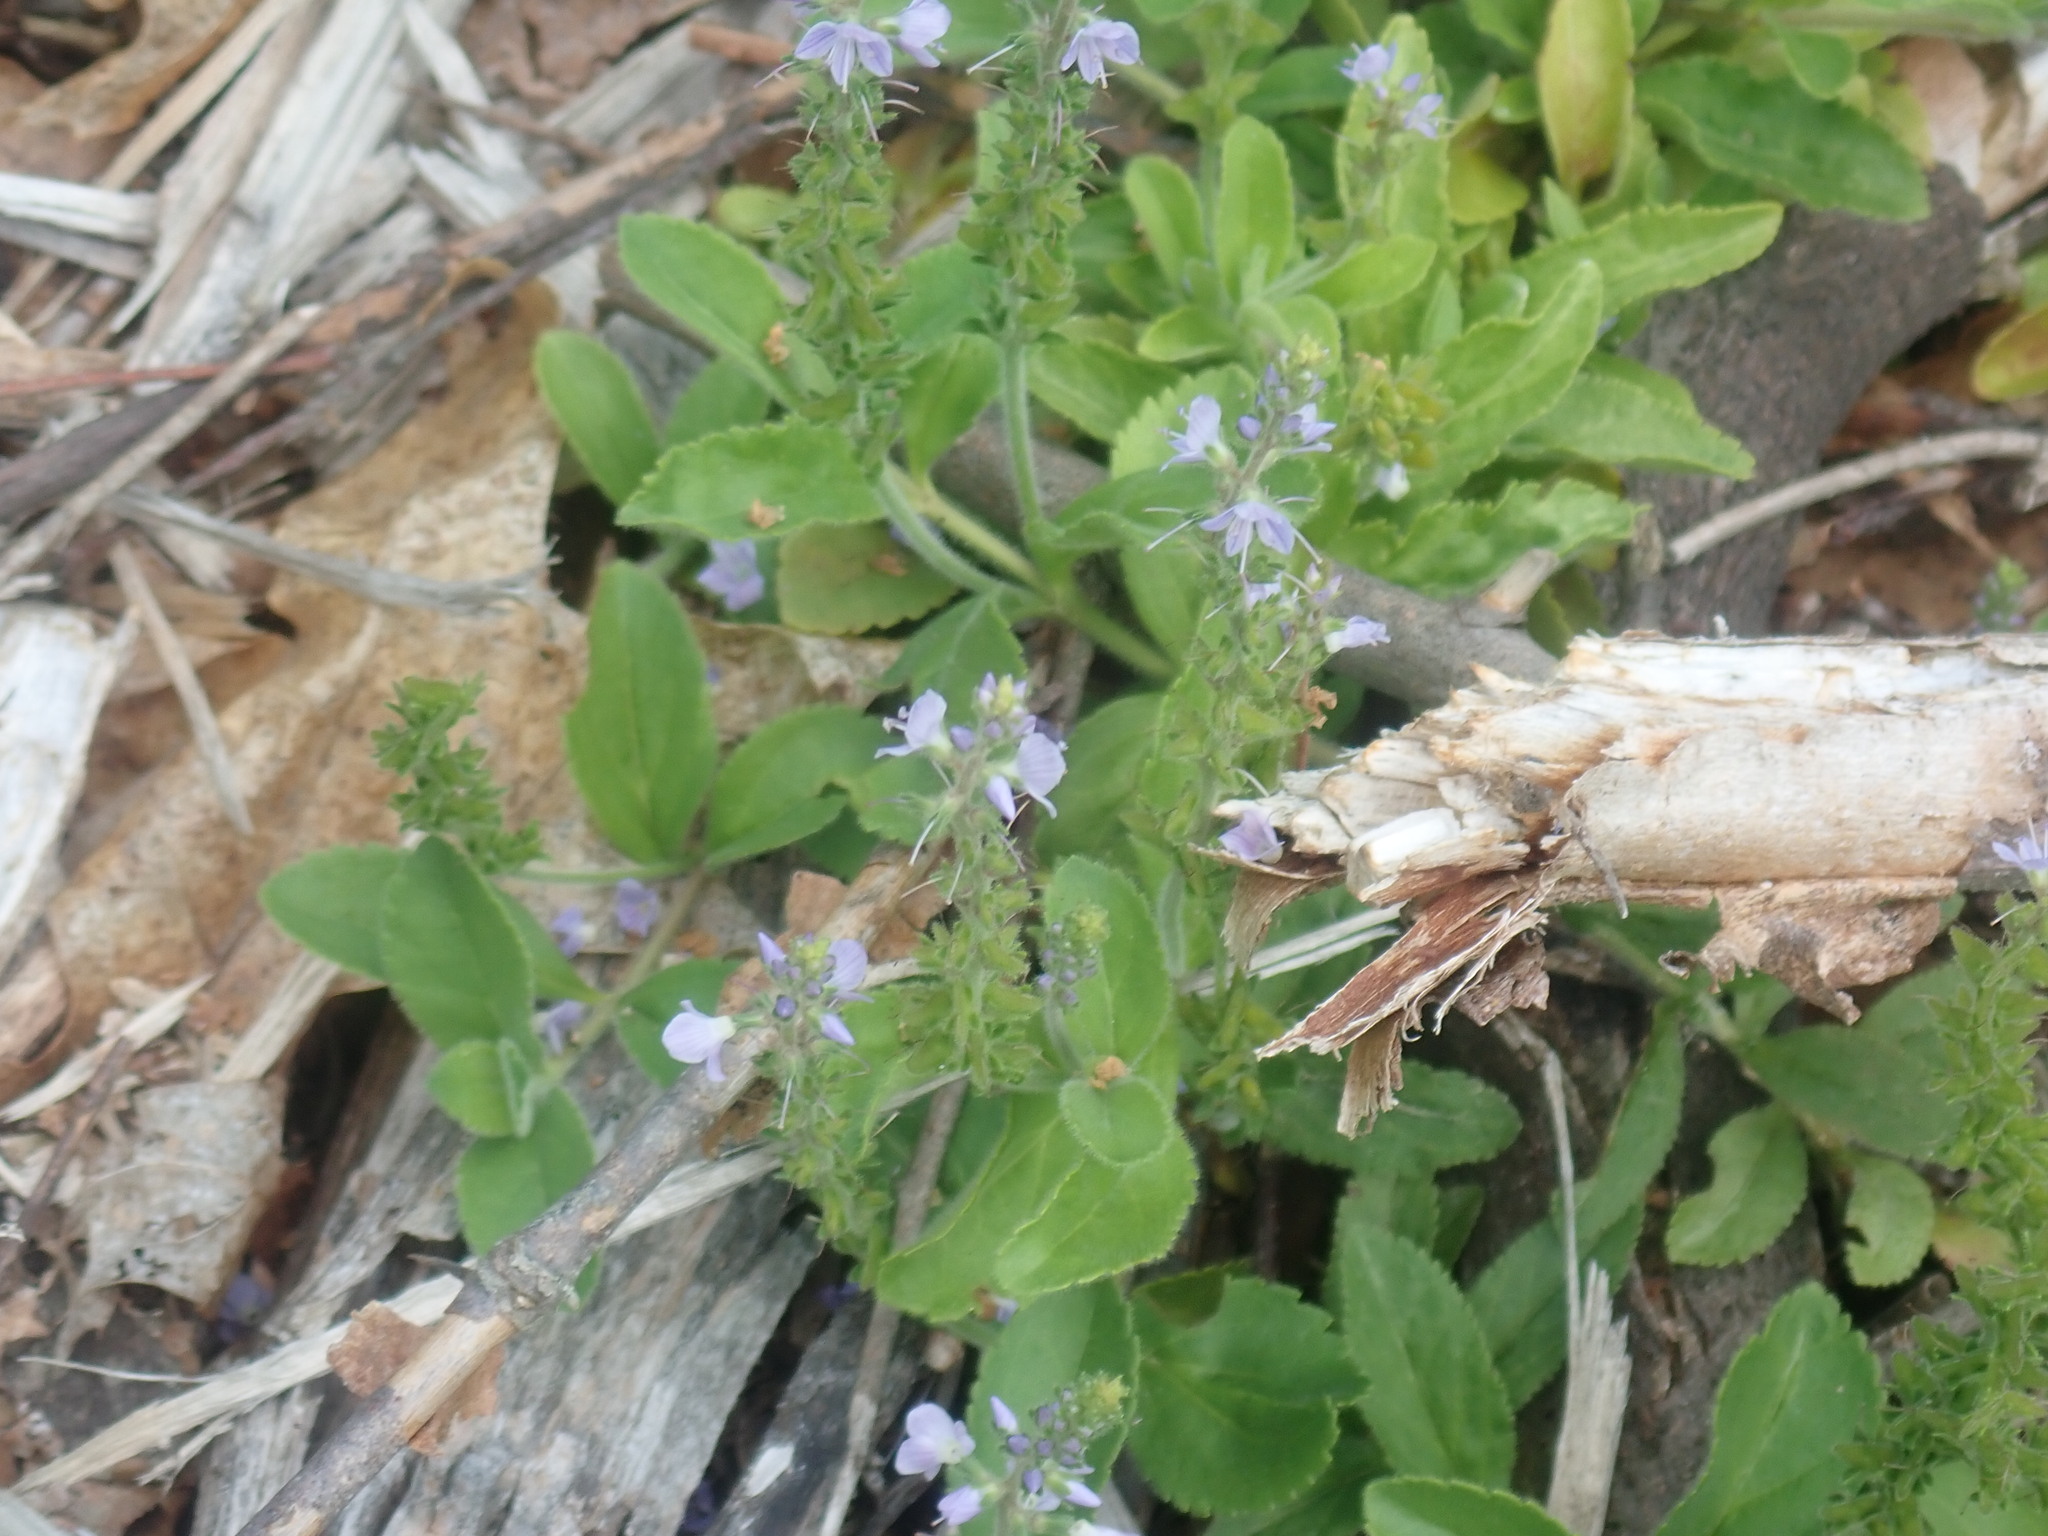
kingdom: Plantae
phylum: Tracheophyta
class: Magnoliopsida
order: Lamiales
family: Plantaginaceae
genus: Veronica
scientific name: Veronica officinalis
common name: Common speedwell
